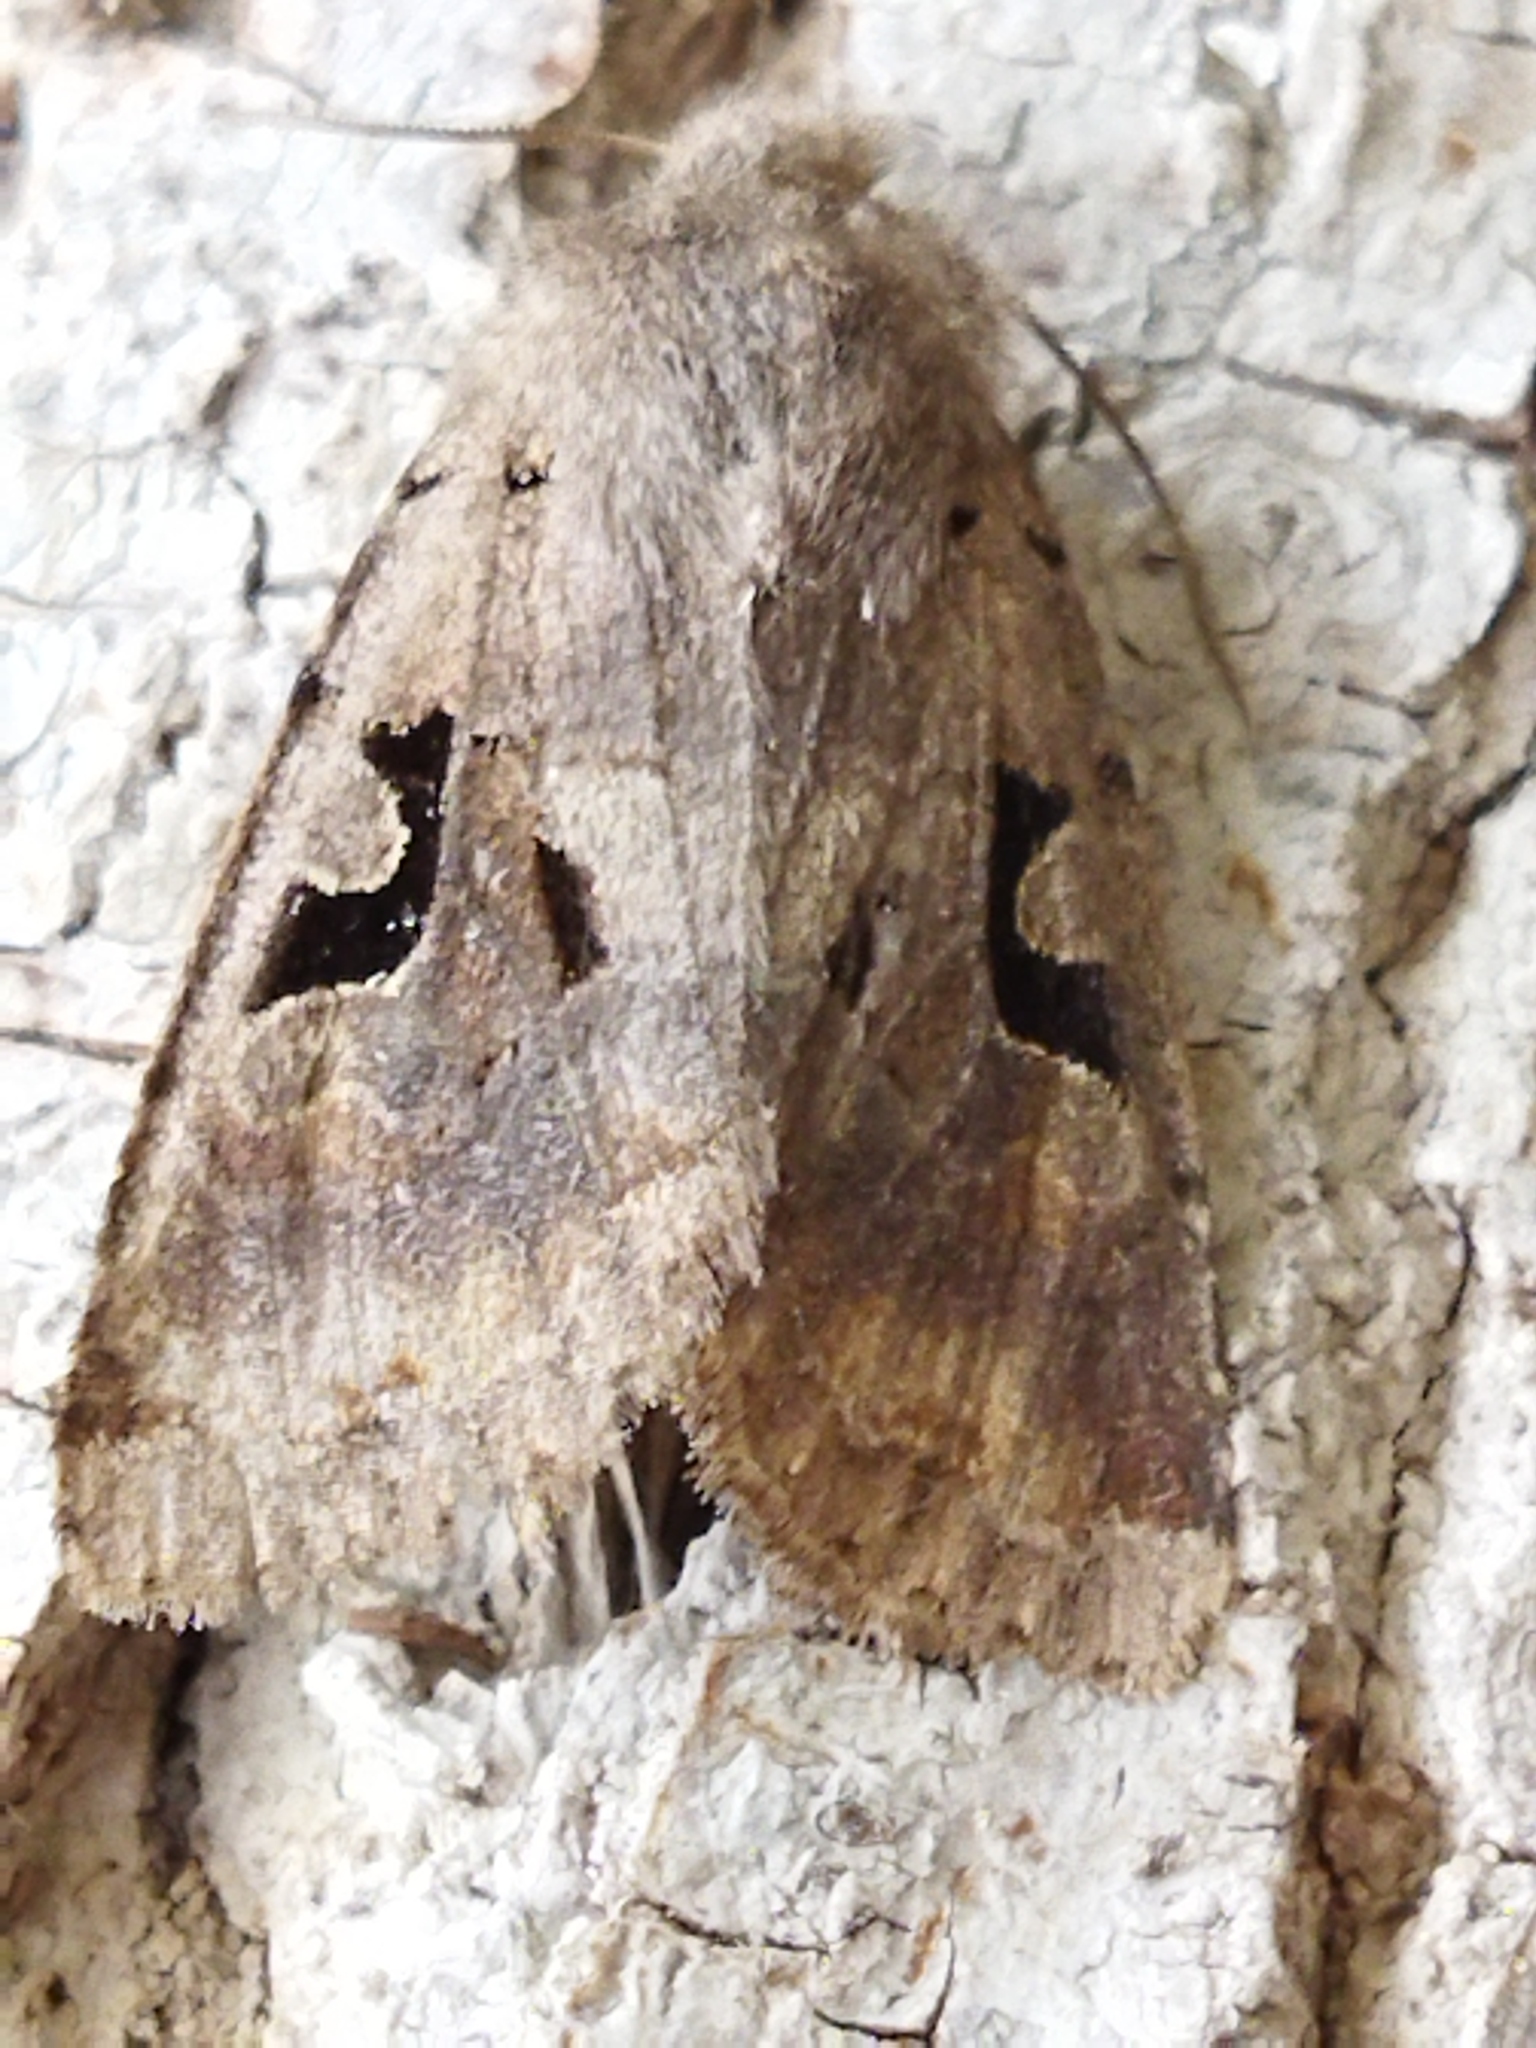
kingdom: Animalia
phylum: Arthropoda
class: Insecta
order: Lepidoptera
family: Noctuidae
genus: Orthosia
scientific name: Orthosia gothica
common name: Hebrew character
